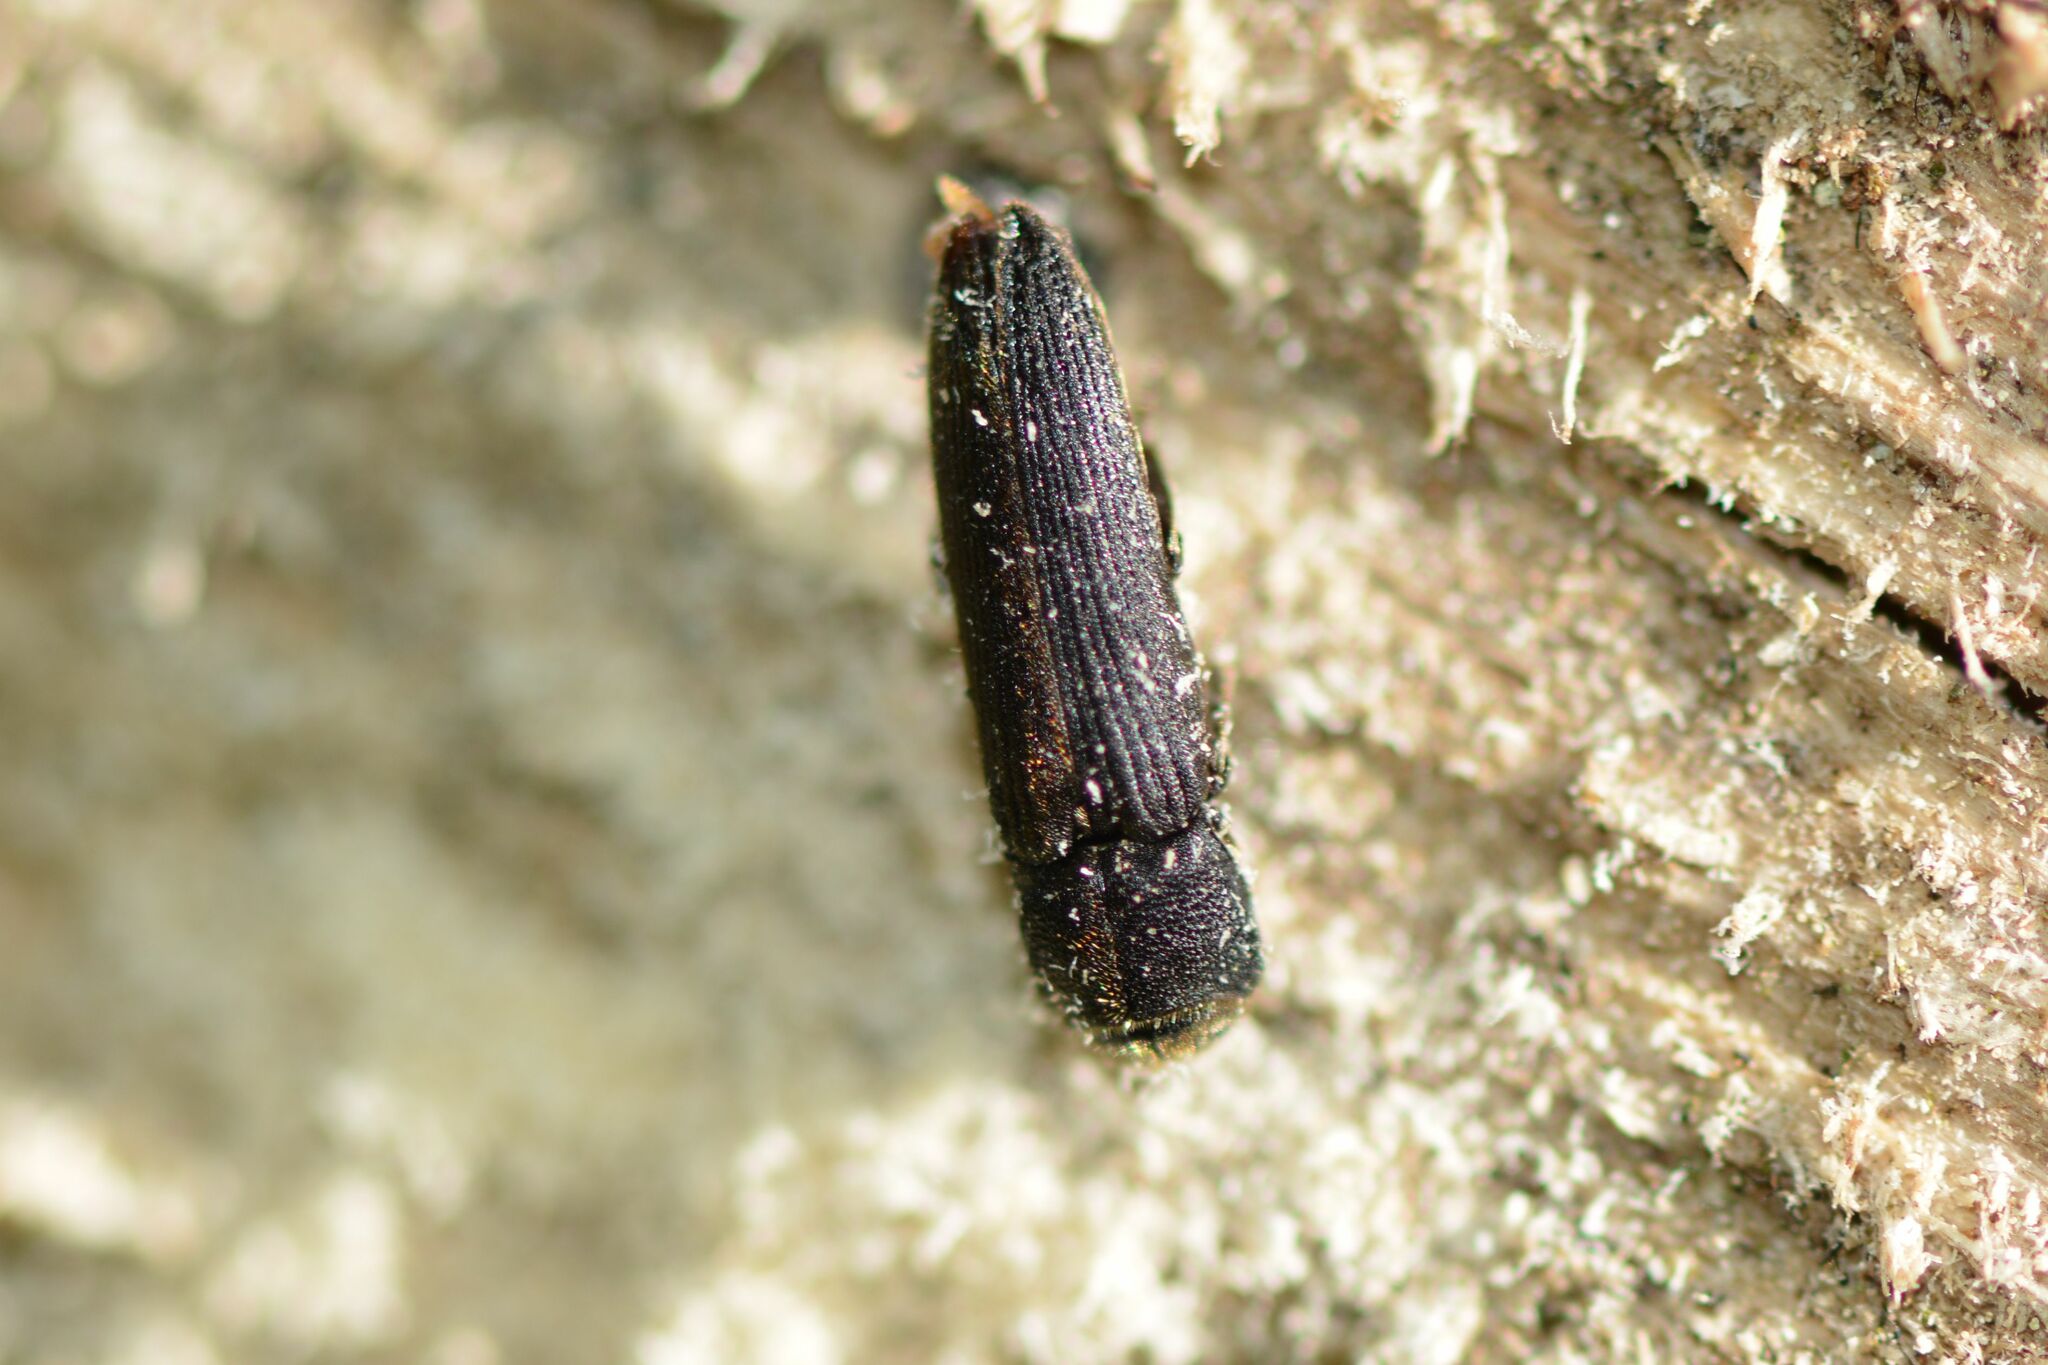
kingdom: Animalia
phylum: Arthropoda
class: Insecta
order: Coleoptera
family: Eucnemidae
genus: Melasis
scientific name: Melasis buprestoides
